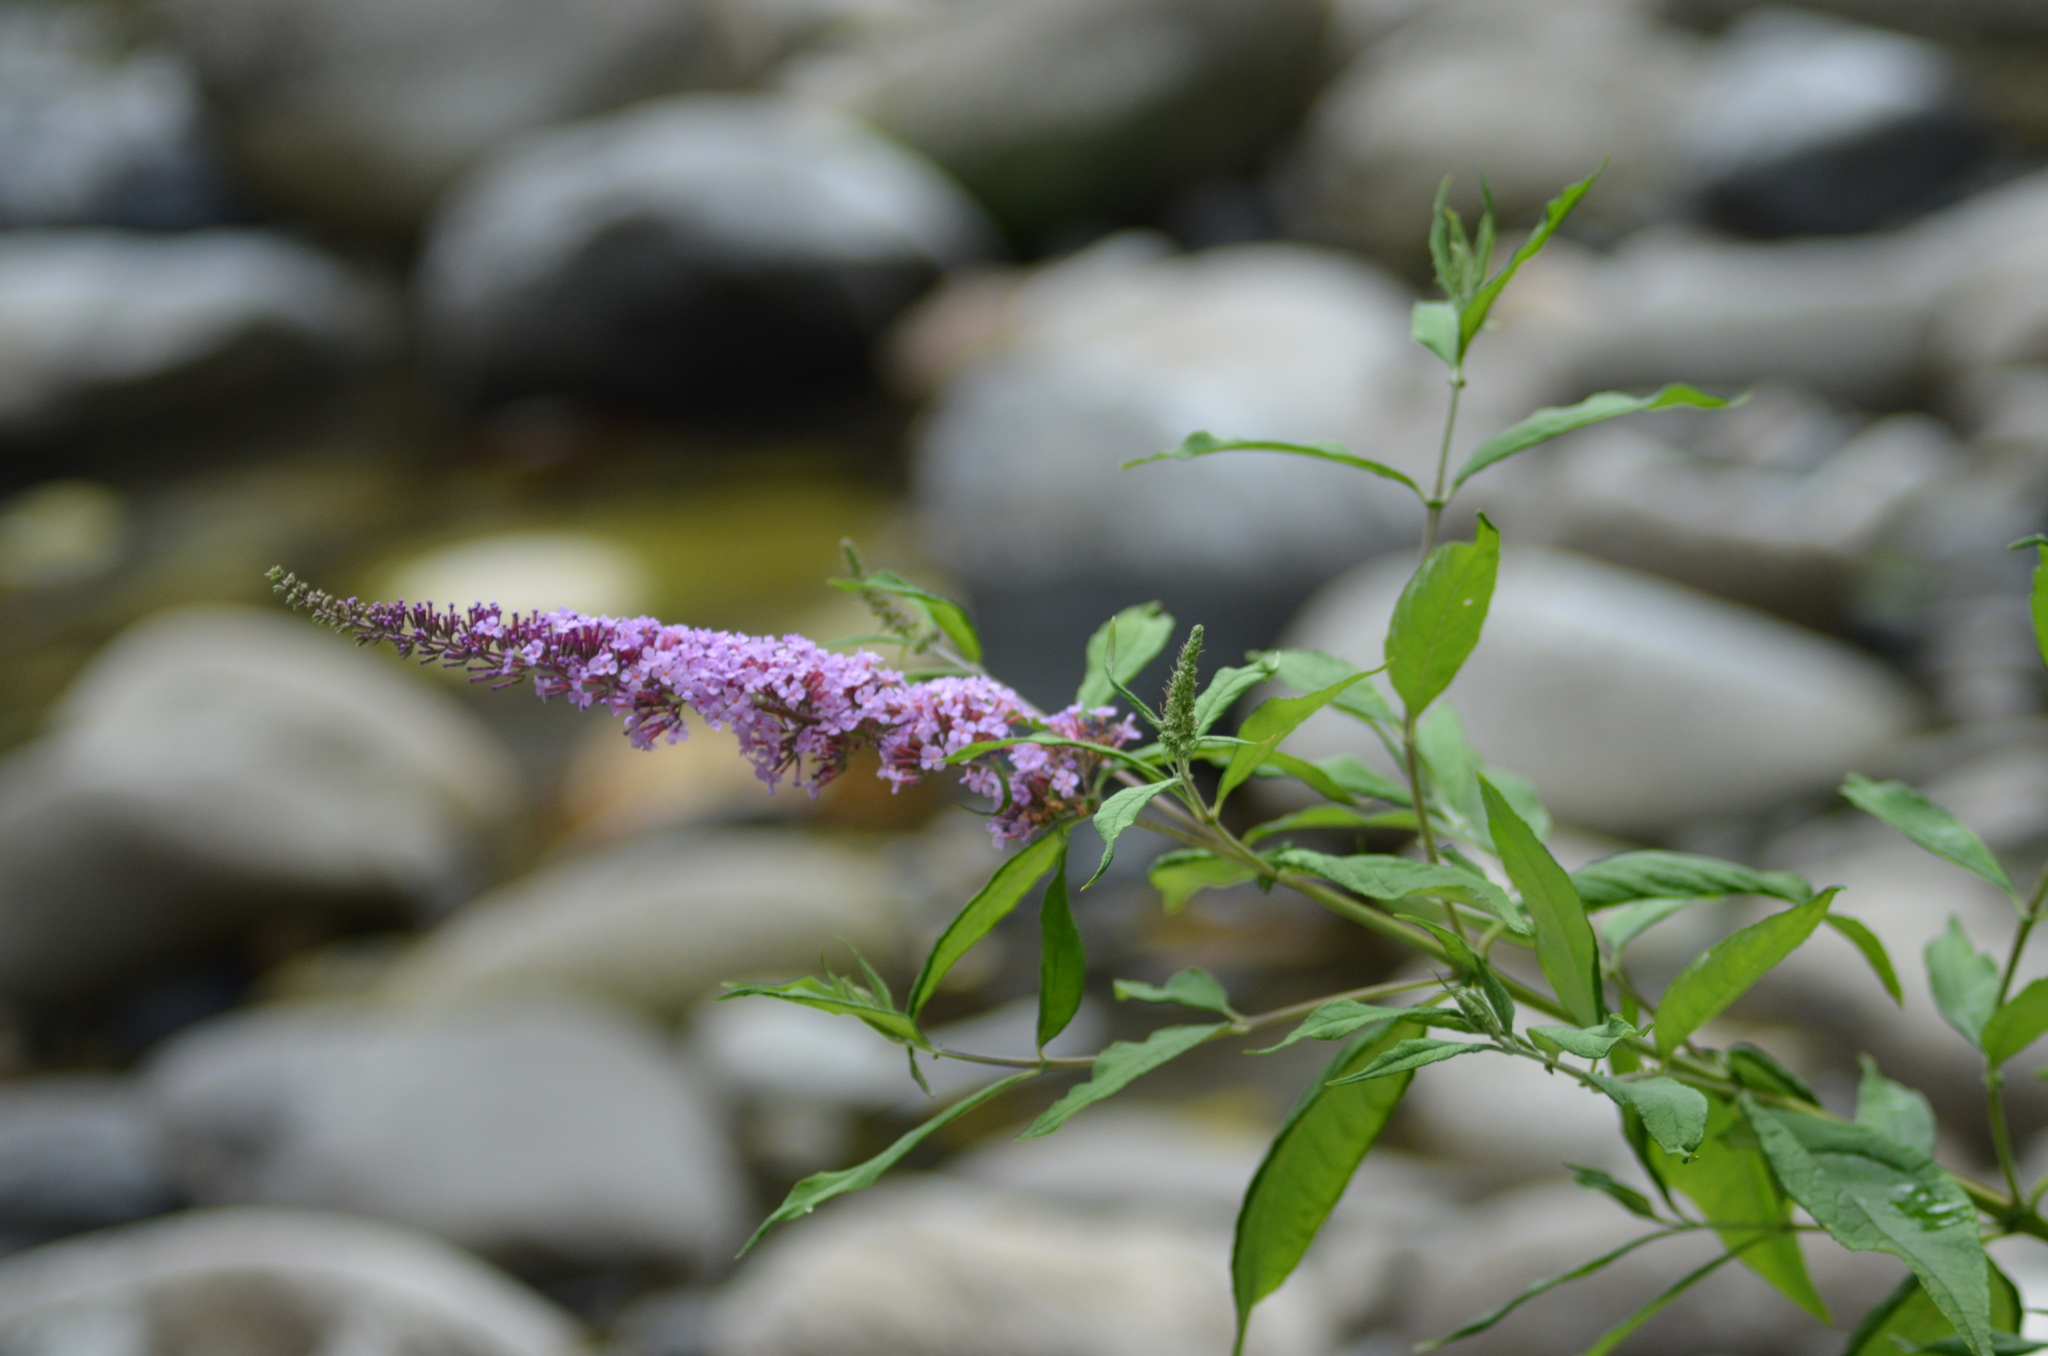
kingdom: Plantae
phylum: Tracheophyta
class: Magnoliopsida
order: Lamiales
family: Scrophulariaceae
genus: Buddleja
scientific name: Buddleja davidii
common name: Butterfly-bush
